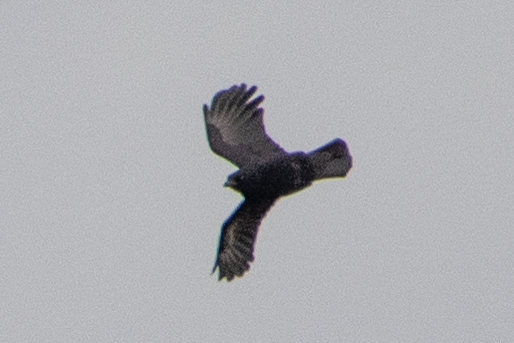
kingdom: Animalia
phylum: Chordata
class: Aves
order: Passeriformes
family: Corvidae
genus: Corvus
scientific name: Corvus brachyrhynchos
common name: American crow
